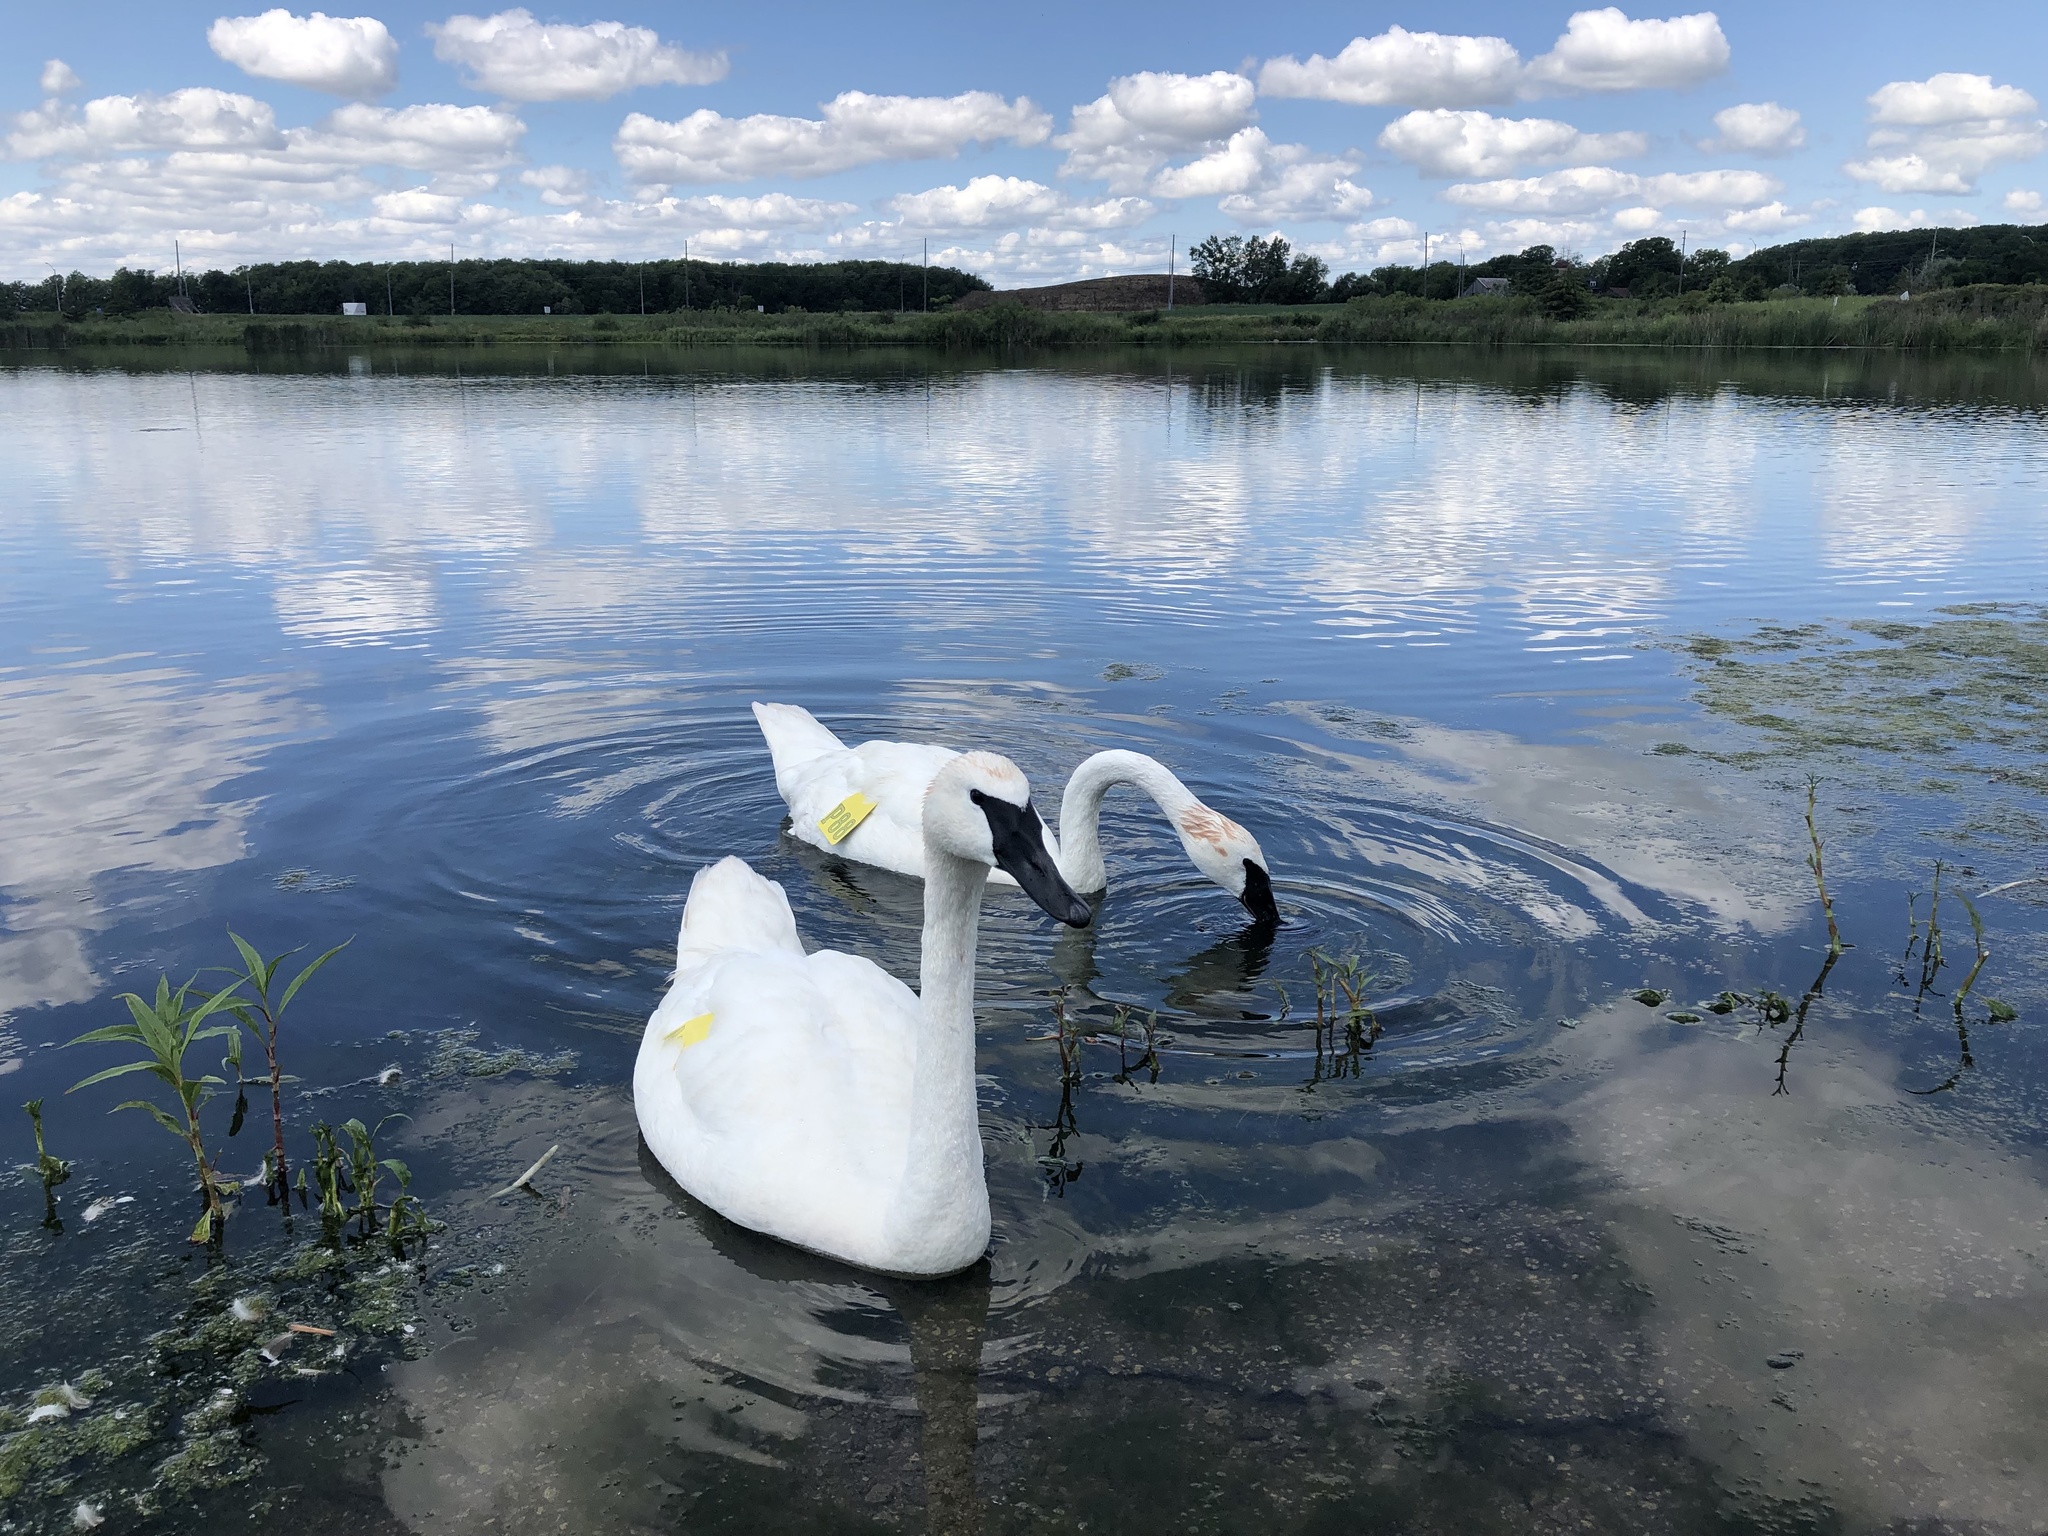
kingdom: Animalia
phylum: Chordata
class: Aves
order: Anseriformes
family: Anatidae
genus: Cygnus
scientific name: Cygnus buccinator
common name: Trumpeter swan
